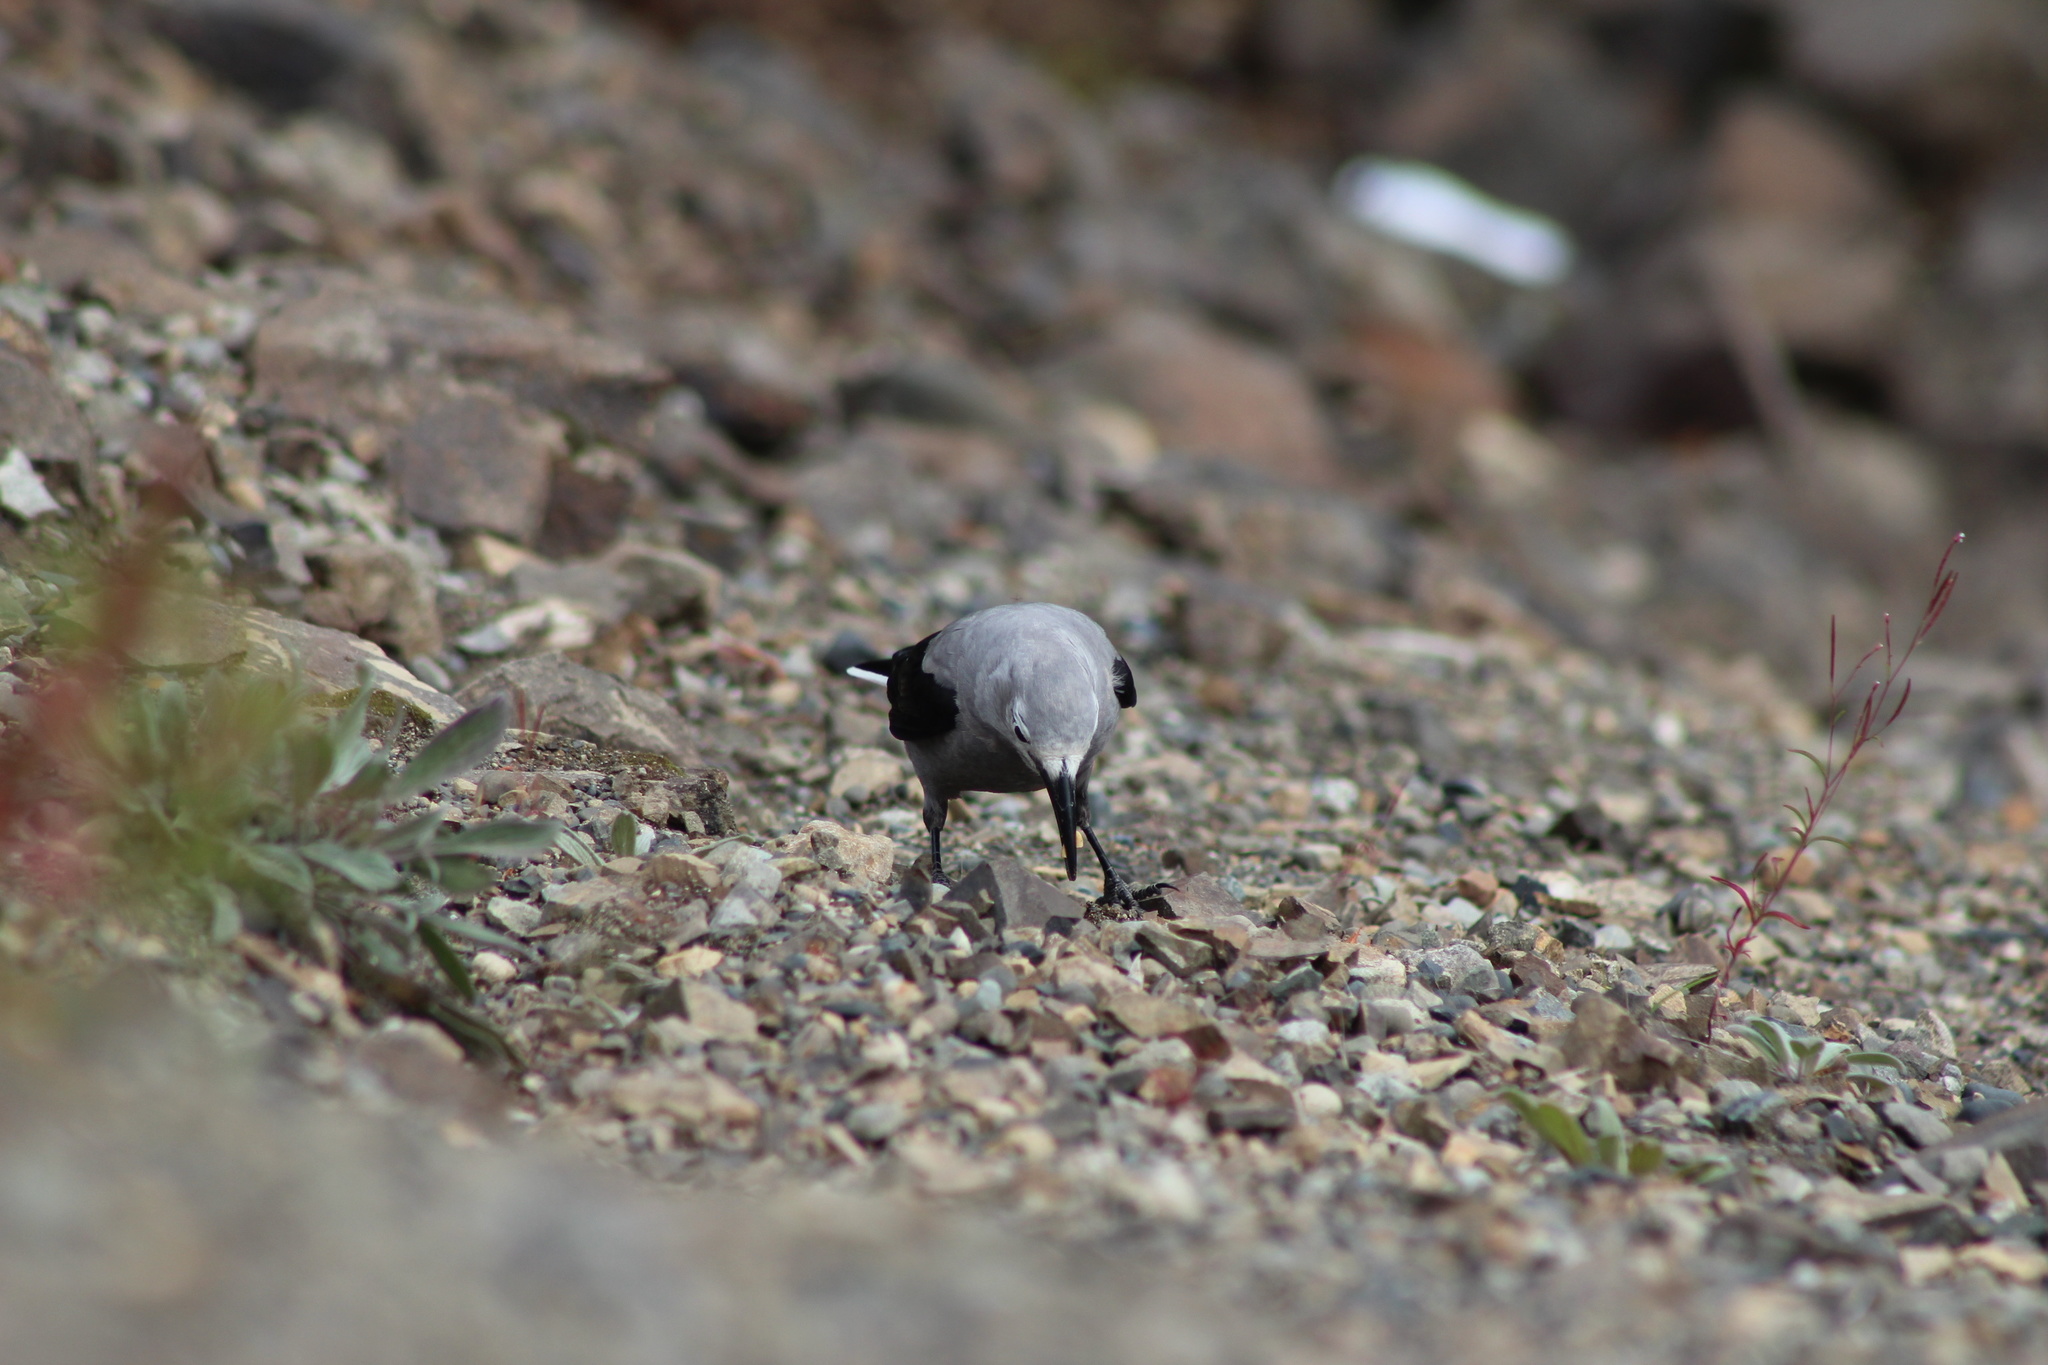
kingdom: Animalia
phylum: Chordata
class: Aves
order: Passeriformes
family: Corvidae
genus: Nucifraga
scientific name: Nucifraga columbiana
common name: Clark's nutcracker
